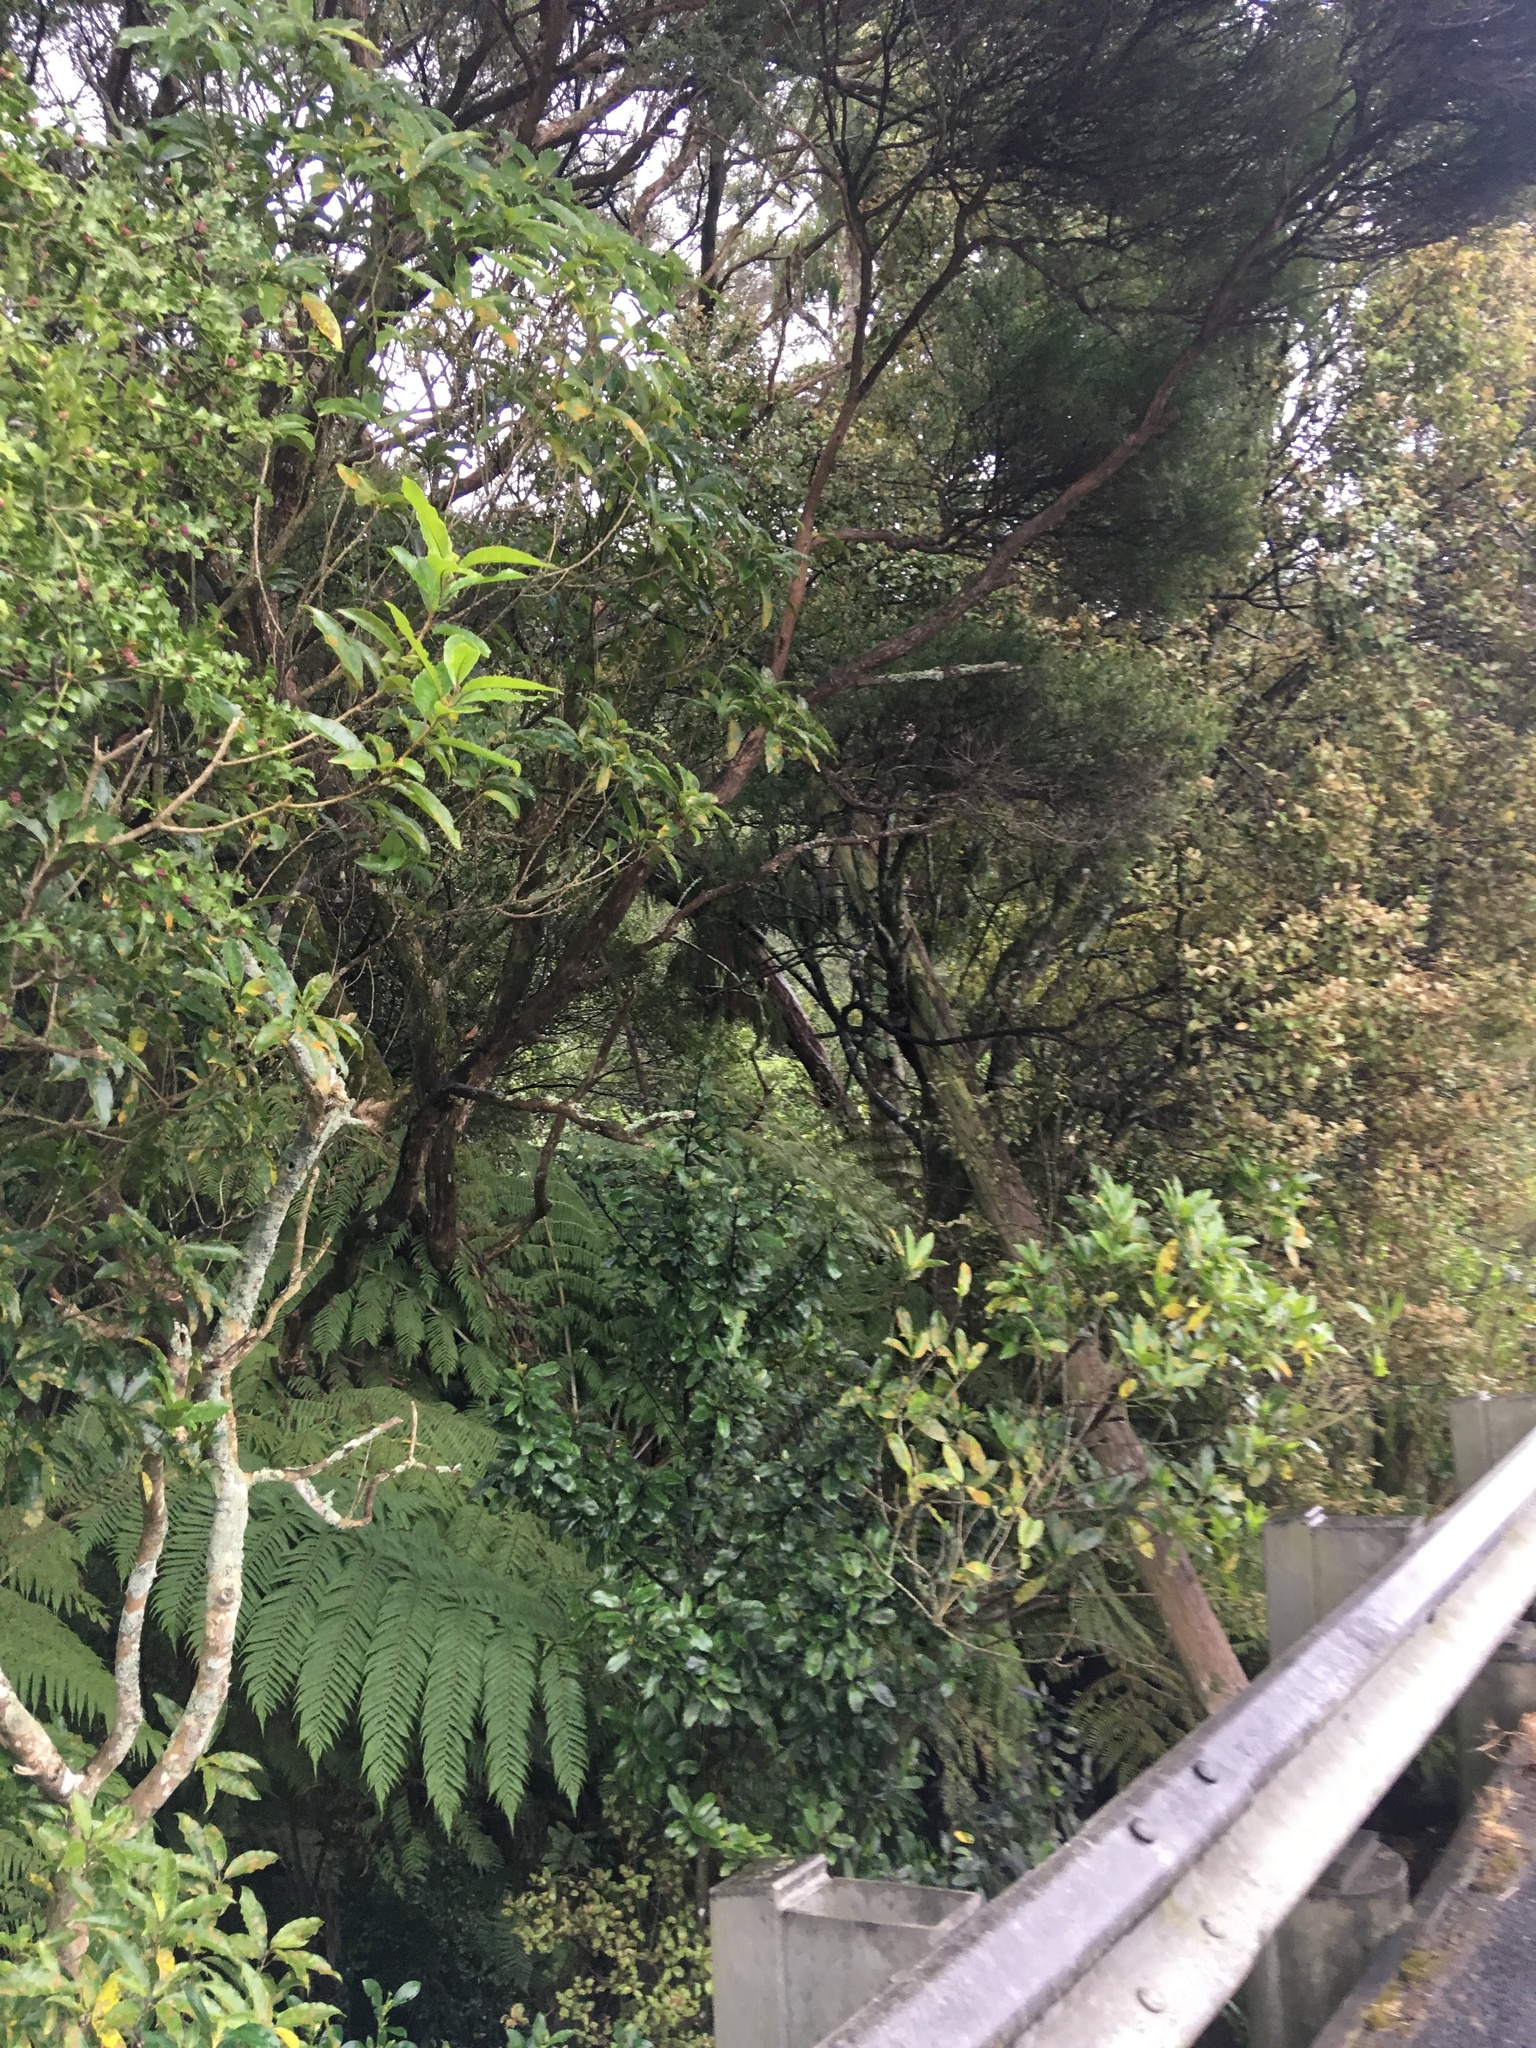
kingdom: Plantae
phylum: Tracheophyta
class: Pinopsida
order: Pinales
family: Podocarpaceae
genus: Dacrydium
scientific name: Dacrydium cupressinum
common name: Red pine
